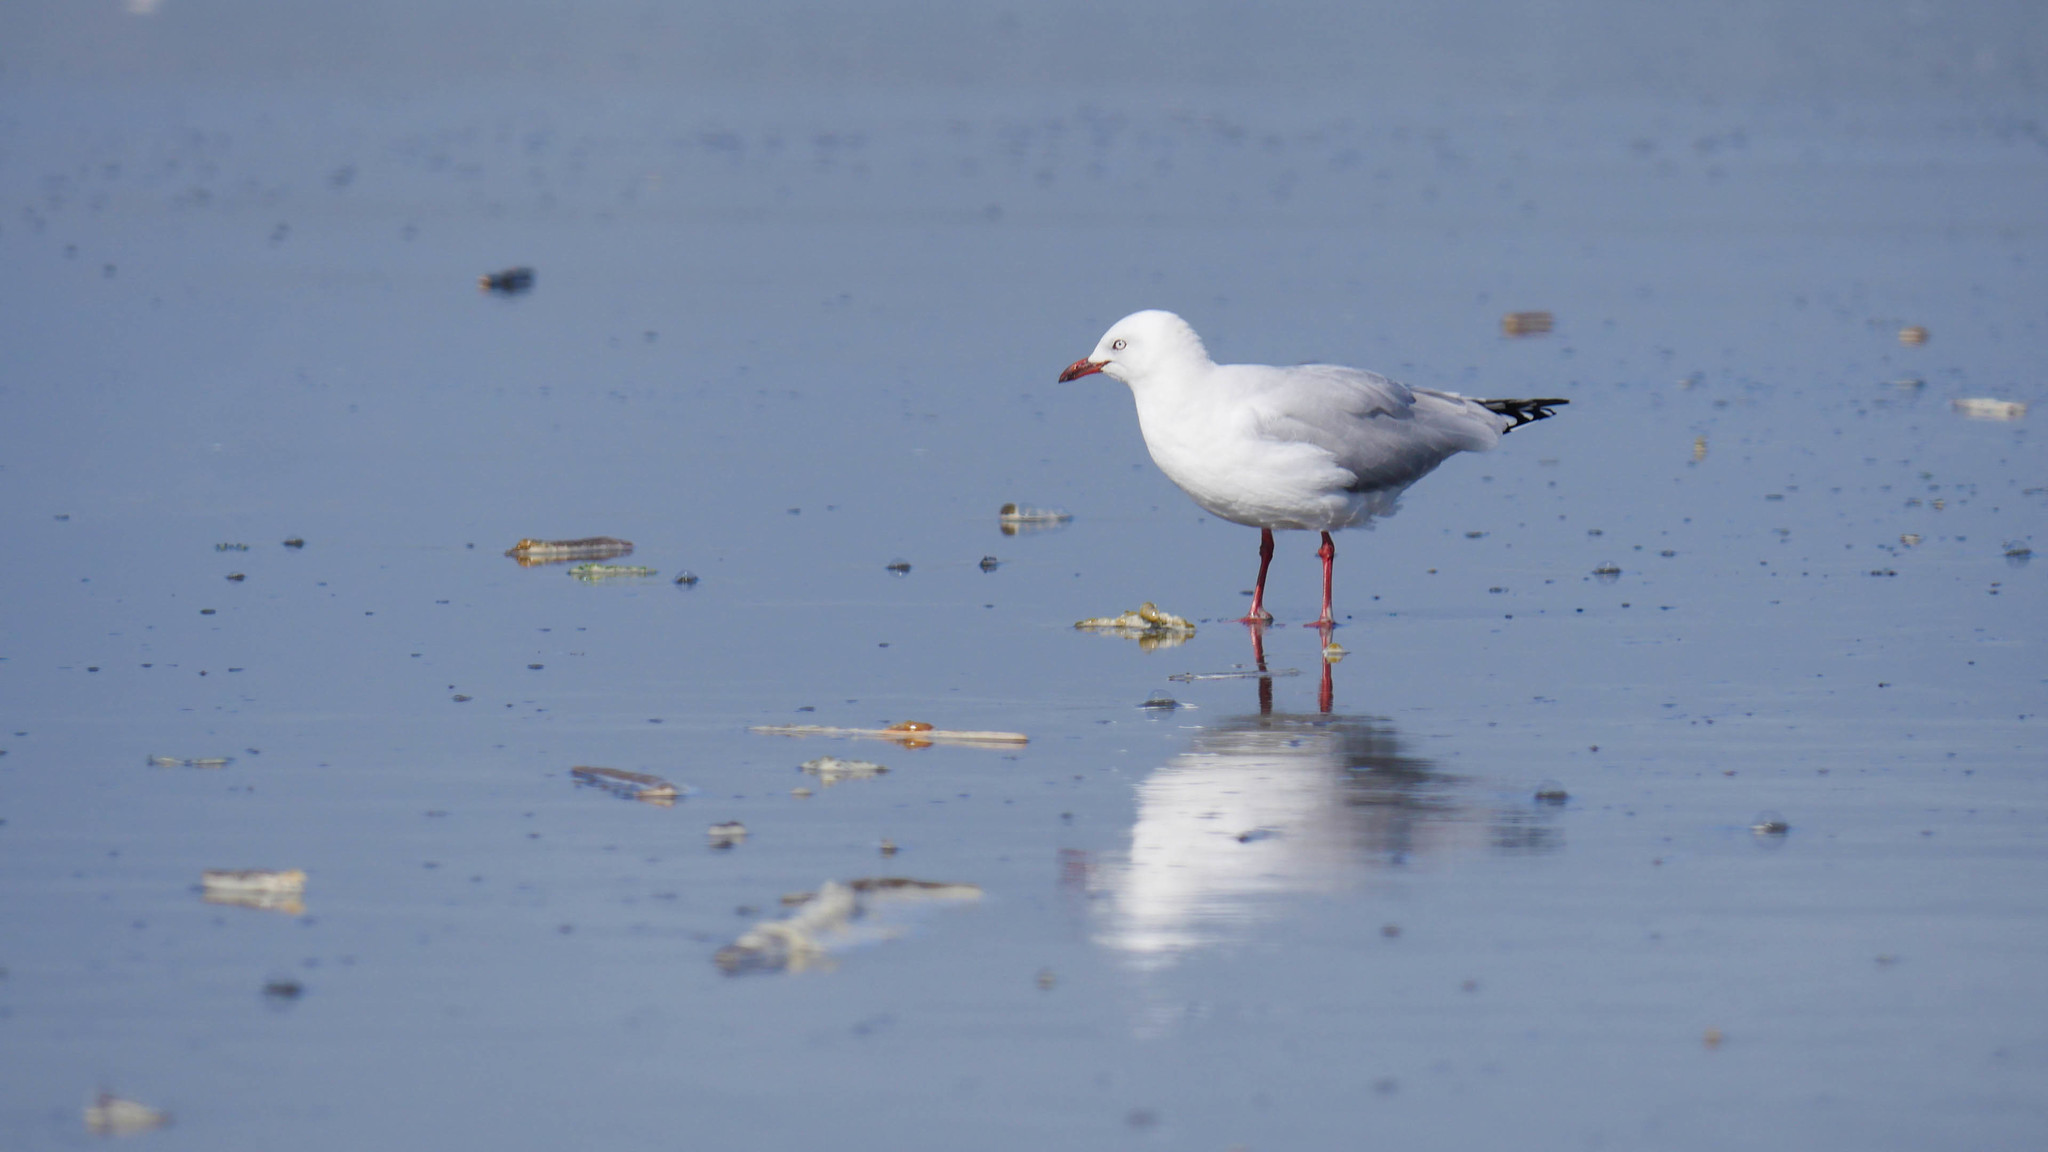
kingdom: Animalia
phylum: Chordata
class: Aves
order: Charadriiformes
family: Laridae
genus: Chroicocephalus
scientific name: Chroicocephalus novaehollandiae
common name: Silver gull
